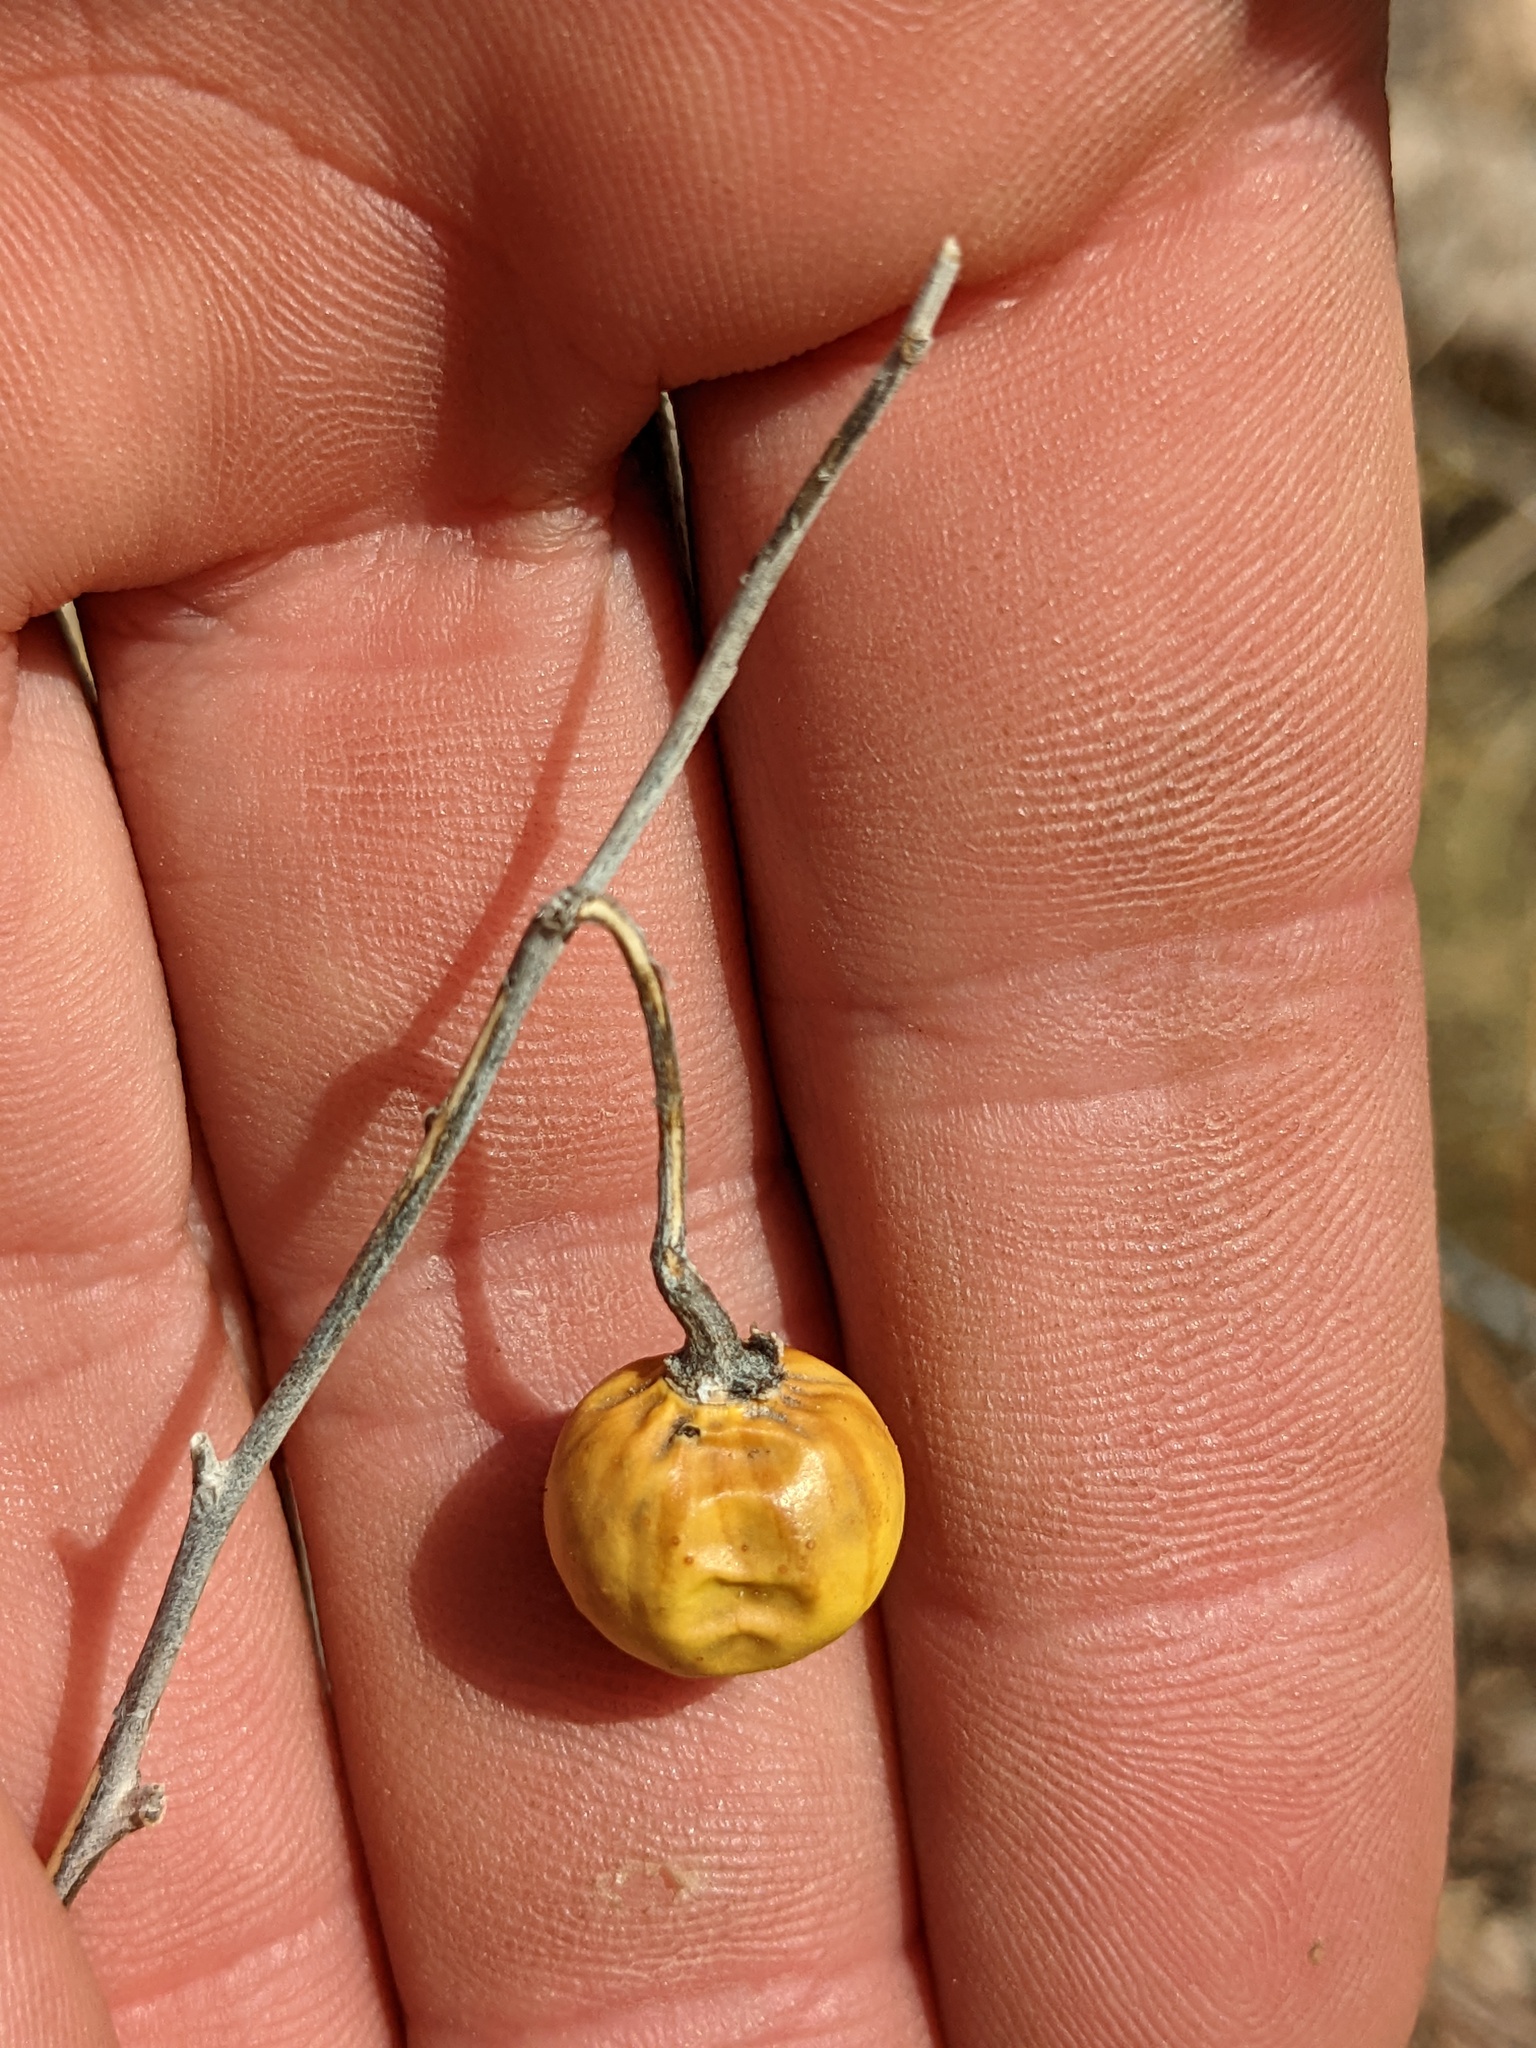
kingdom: Plantae
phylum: Tracheophyta
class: Magnoliopsida
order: Solanales
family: Solanaceae
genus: Solanum
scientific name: Solanum elaeagnifolium
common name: Silverleaf nightshade
